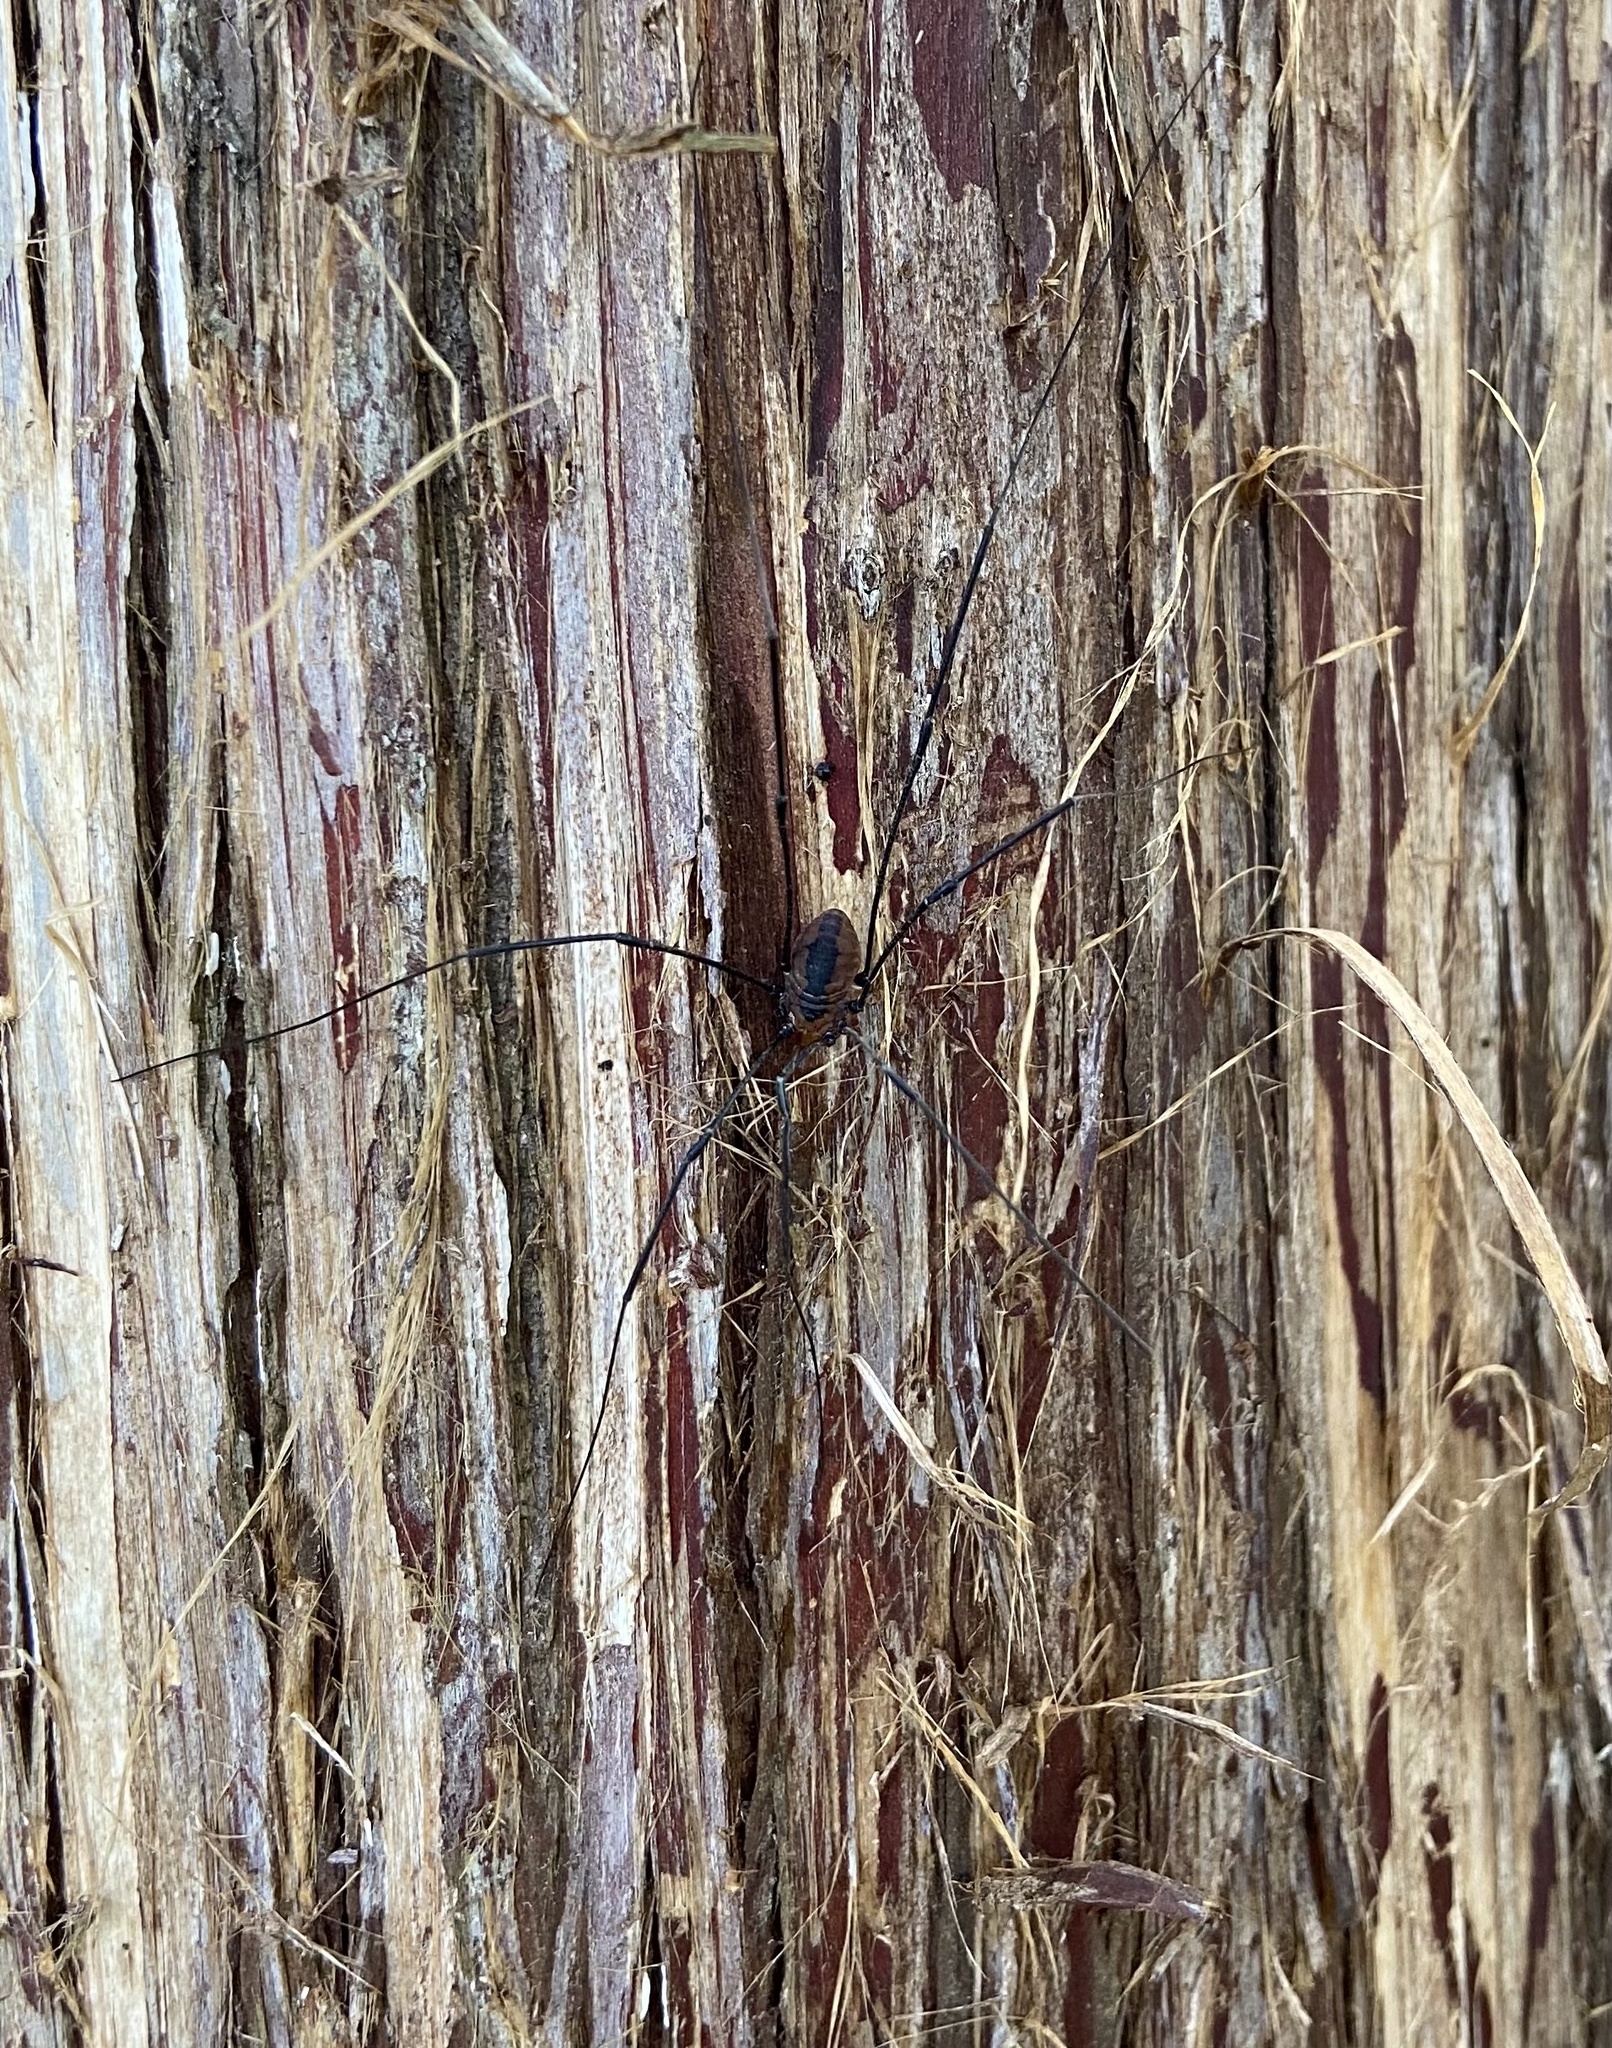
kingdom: Animalia
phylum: Arthropoda
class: Arachnida
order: Opiliones
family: Sclerosomatidae
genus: Leiobunum
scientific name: Leiobunum vittatum
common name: Eastern harvestman
